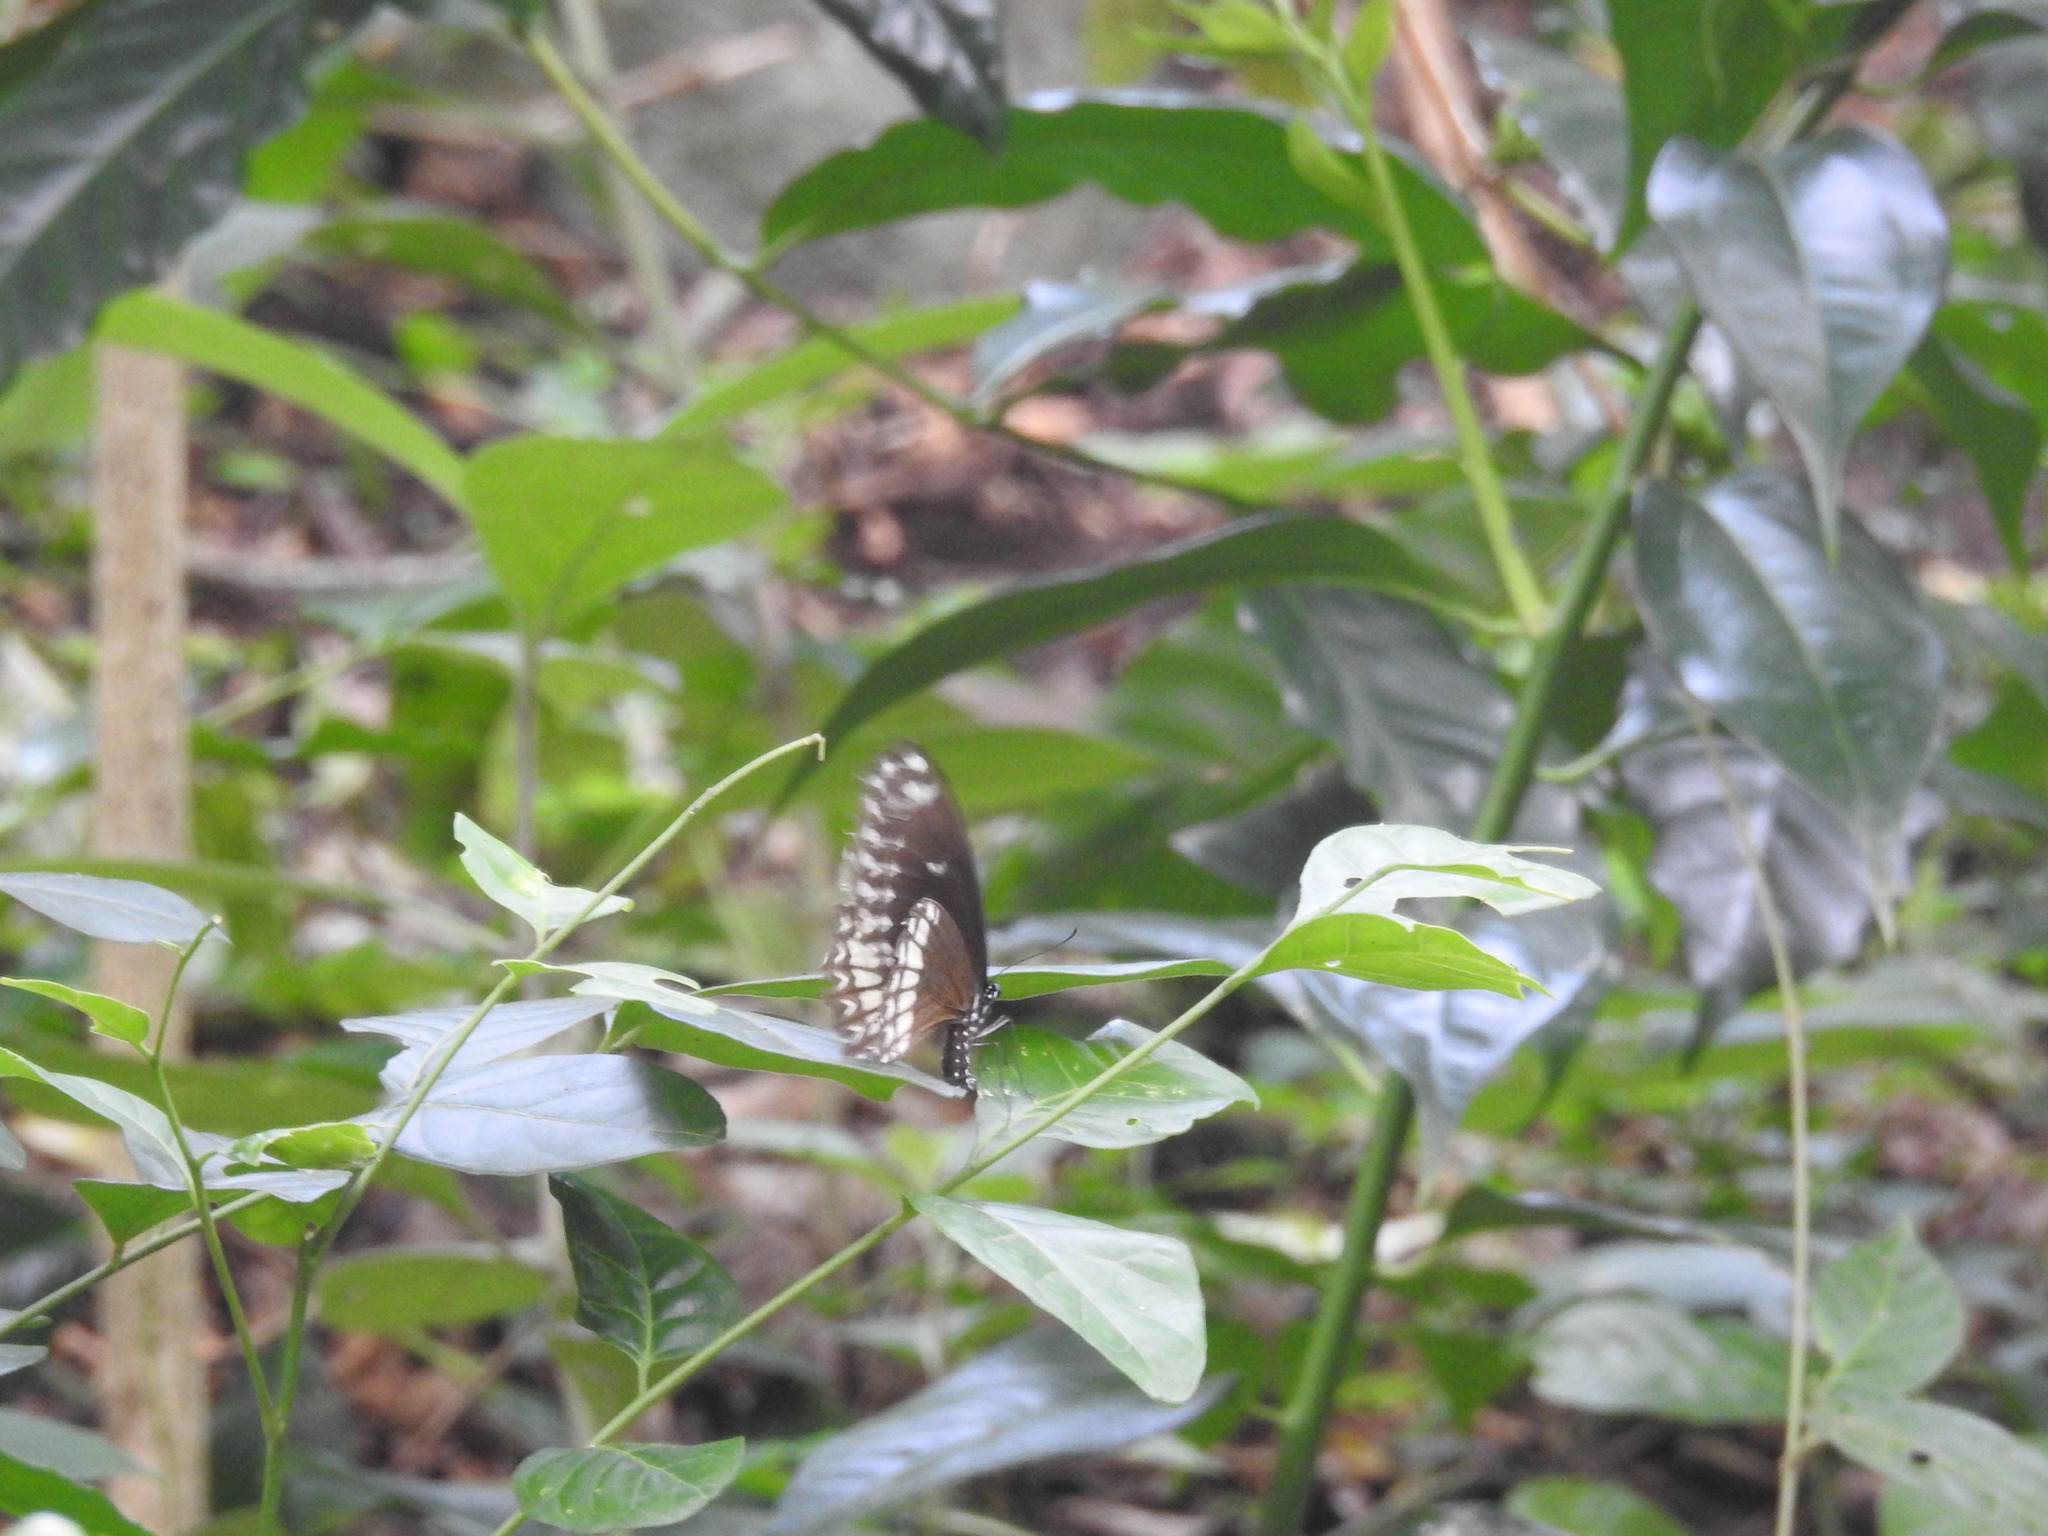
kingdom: Animalia
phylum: Arthropoda
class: Insecta
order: Lepidoptera
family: Papilionidae
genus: Papilio
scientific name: Papilio dravidarum
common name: Malabar raven
